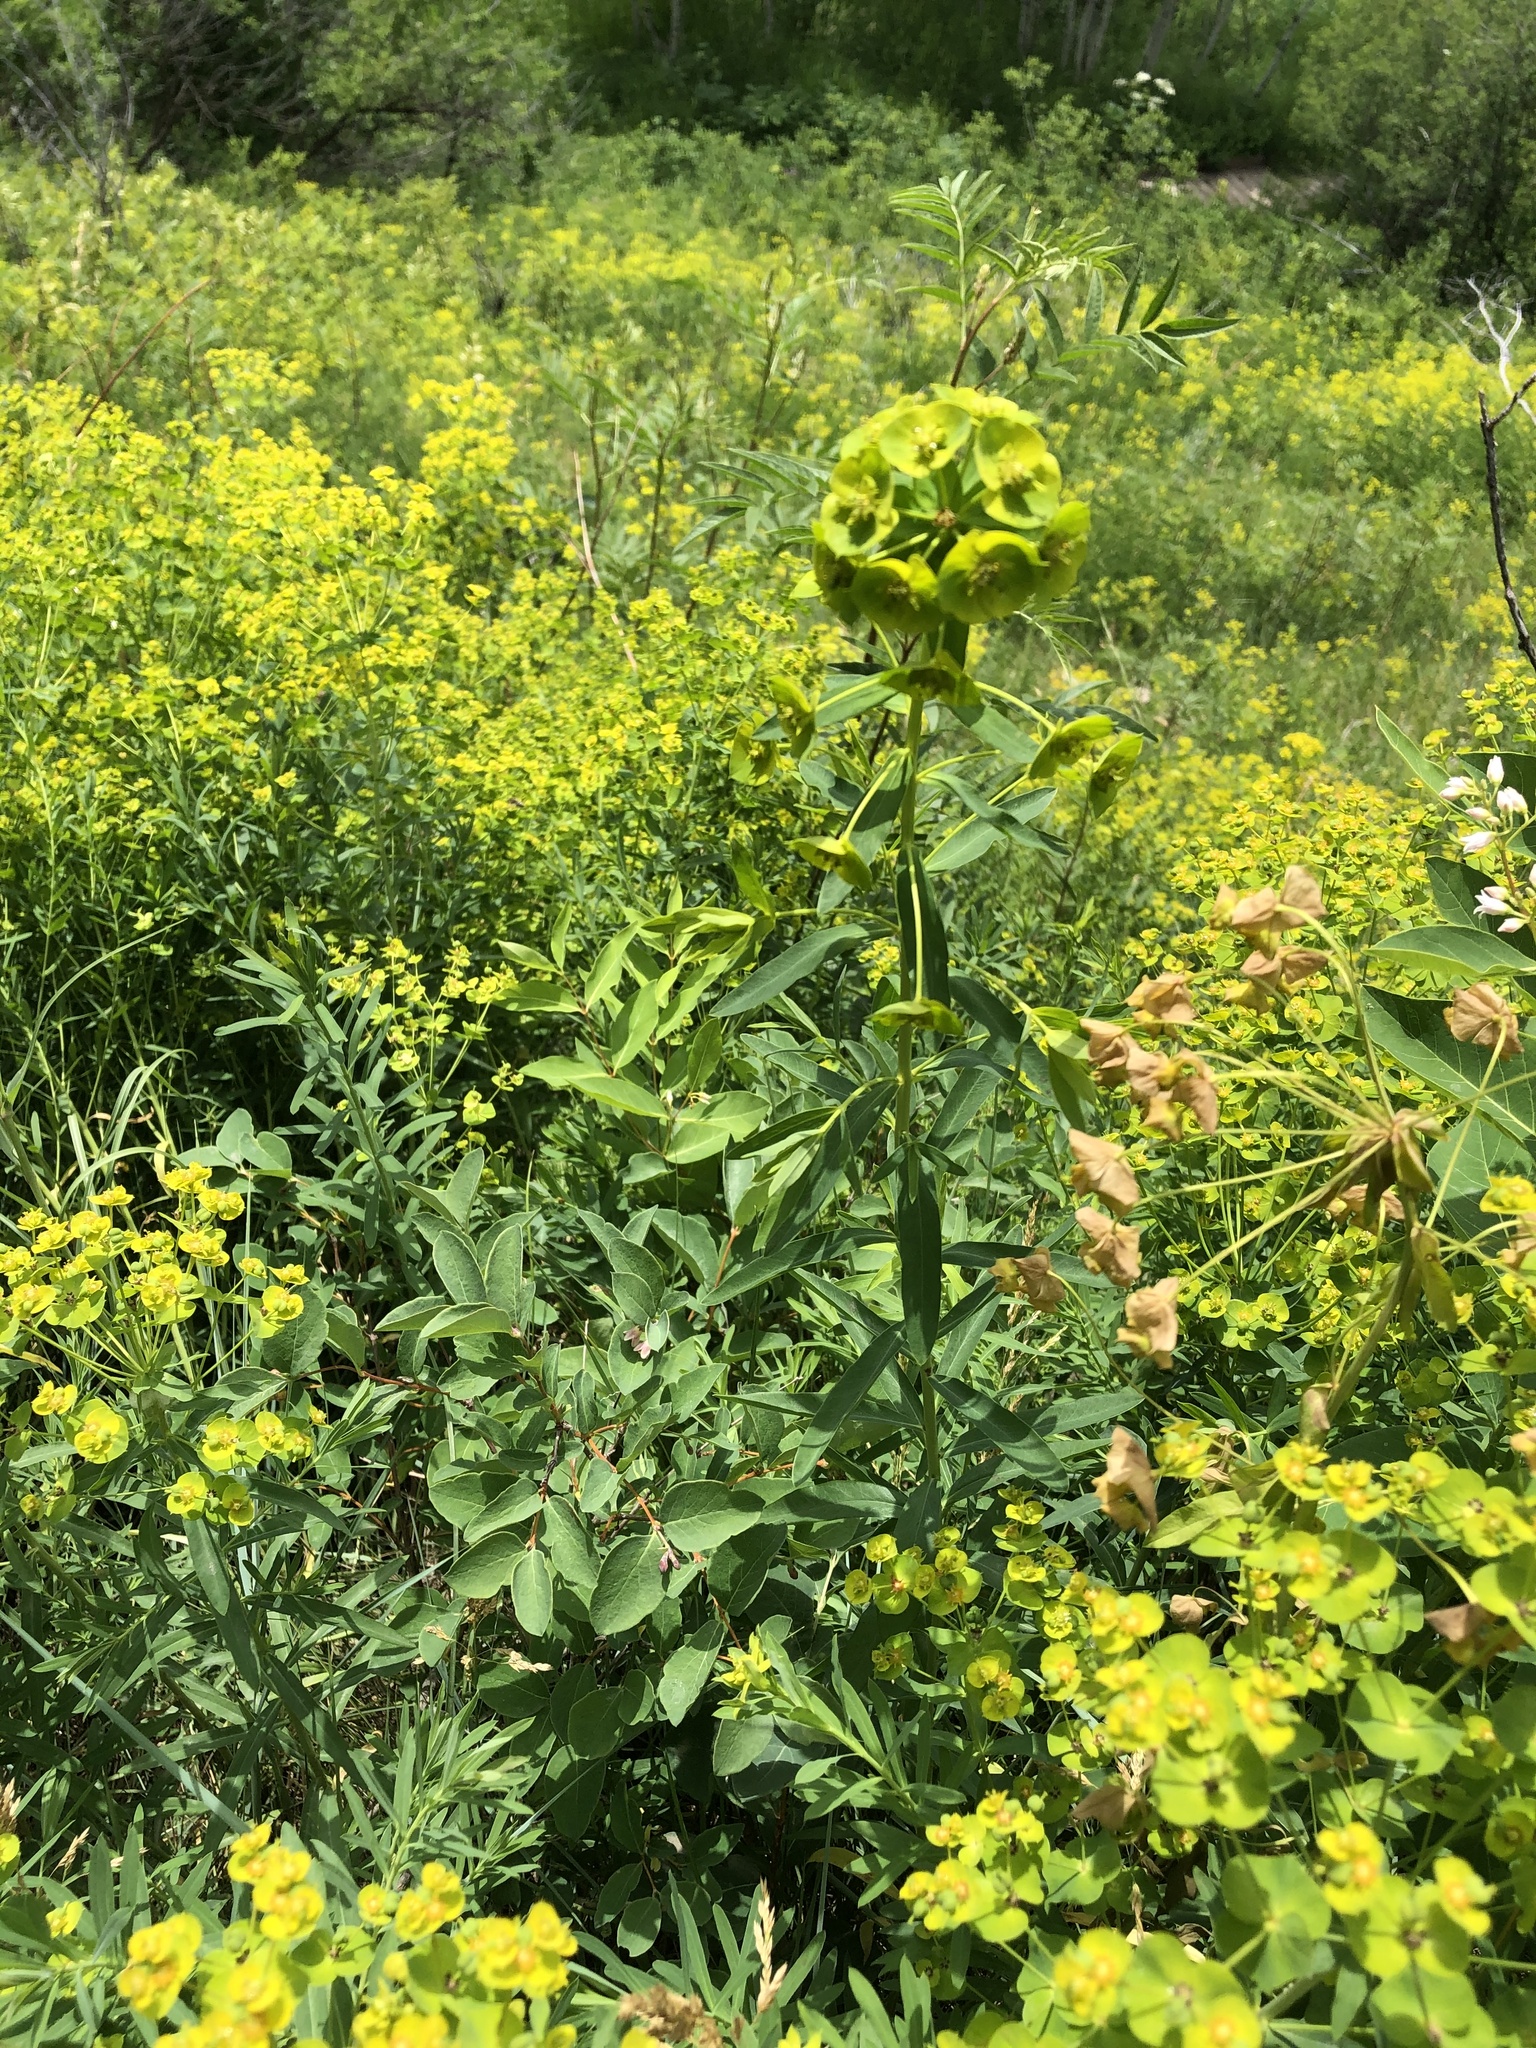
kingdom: Plantae
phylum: Tracheophyta
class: Magnoliopsida
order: Malpighiales
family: Euphorbiaceae
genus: Euphorbia
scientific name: Euphorbia virgata
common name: Leafy spurge
